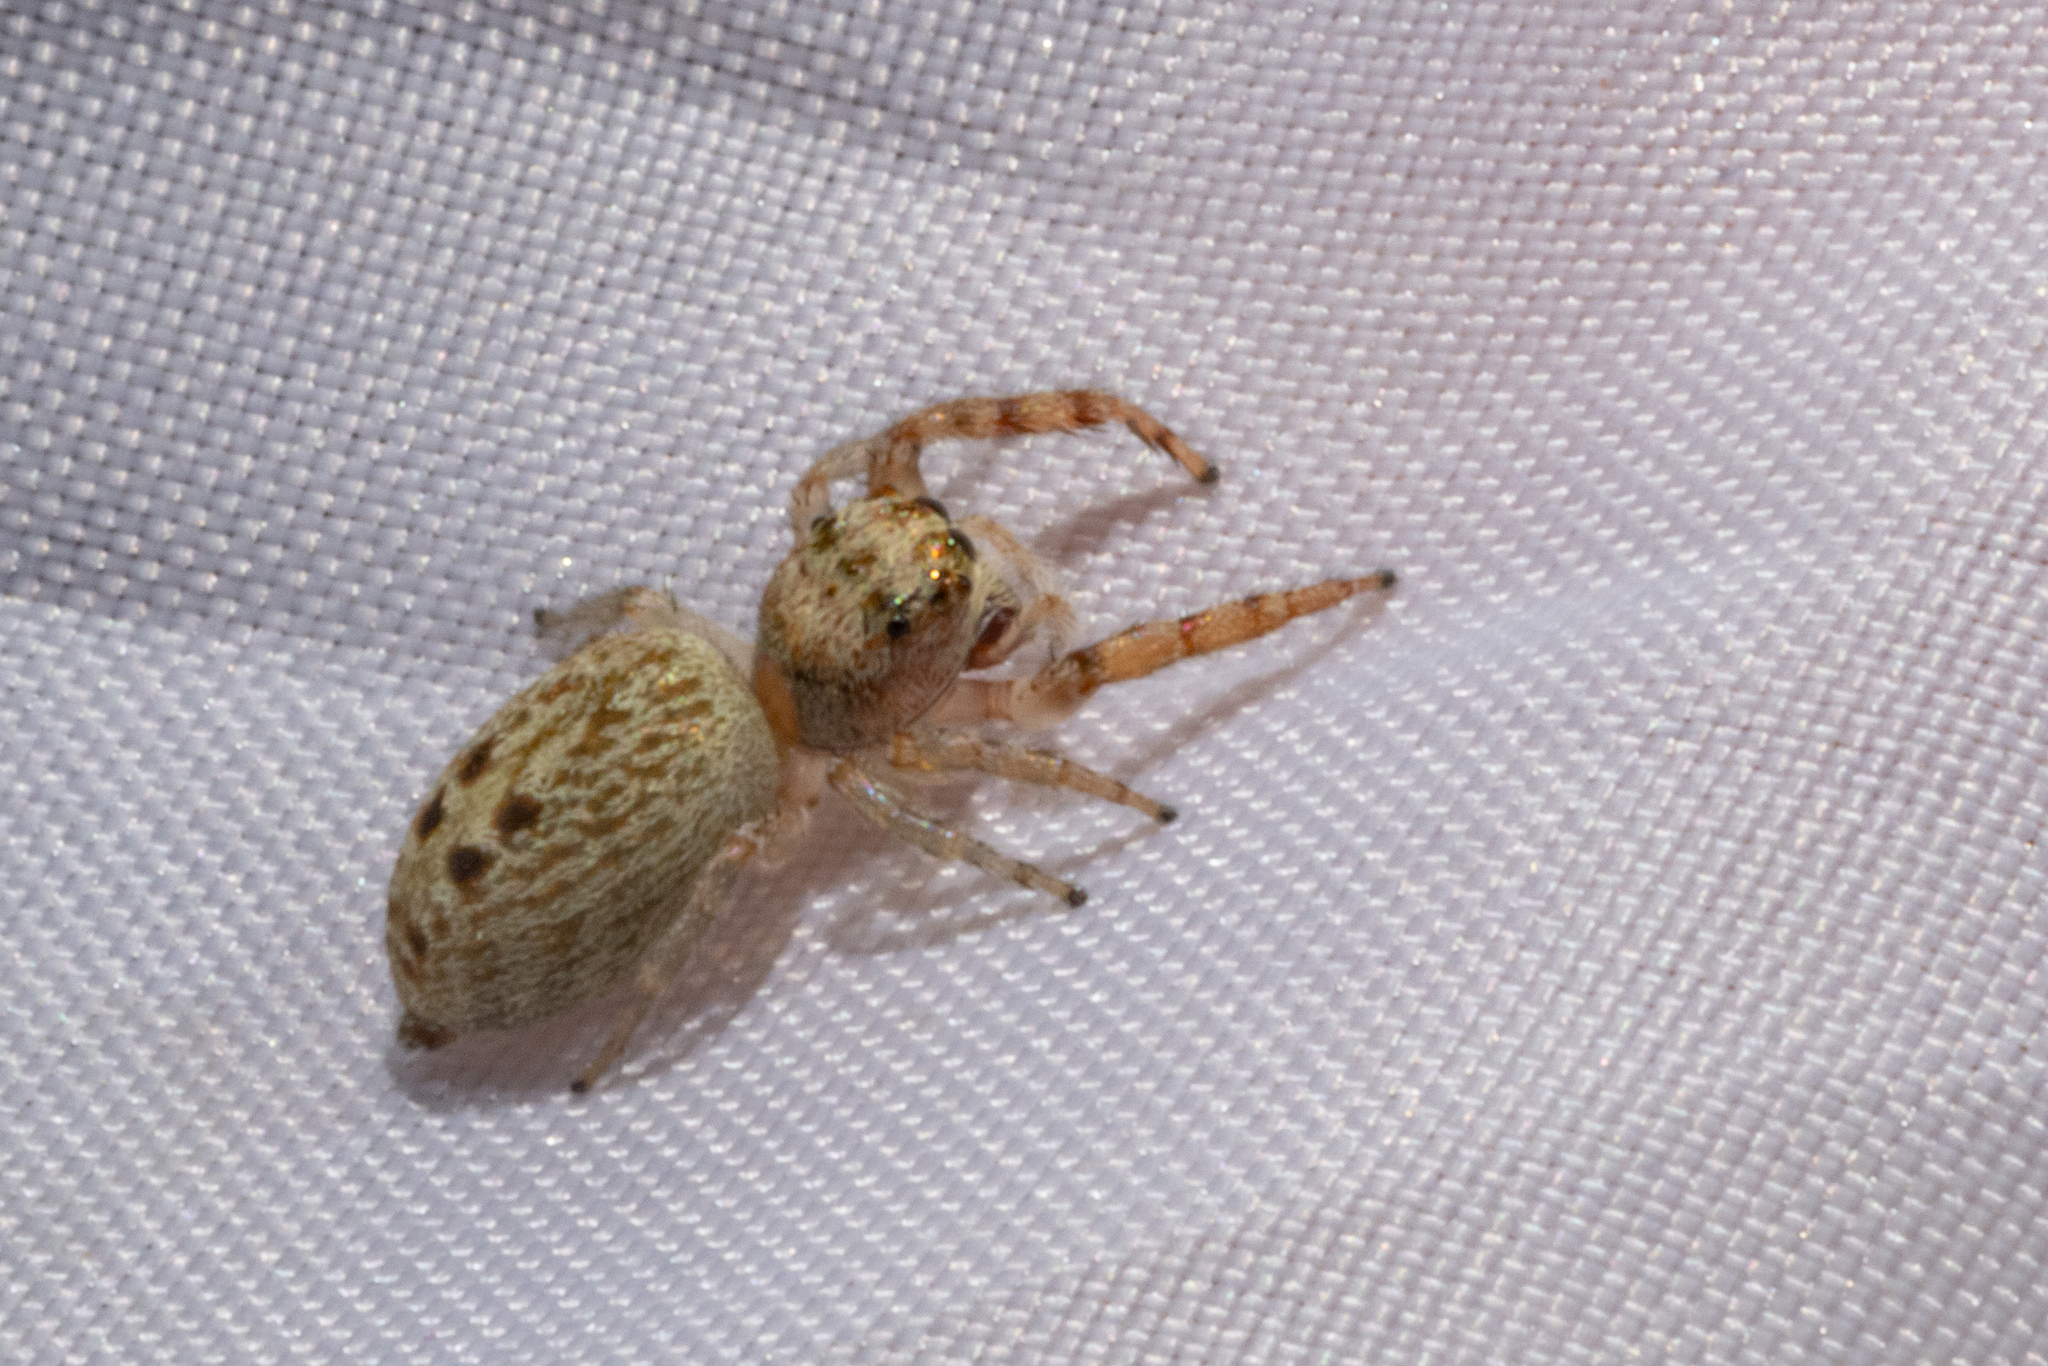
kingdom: Animalia
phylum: Arthropoda
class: Arachnida
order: Araneae
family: Salticidae
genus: Opisthoncus
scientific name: Opisthoncus polyphemus
